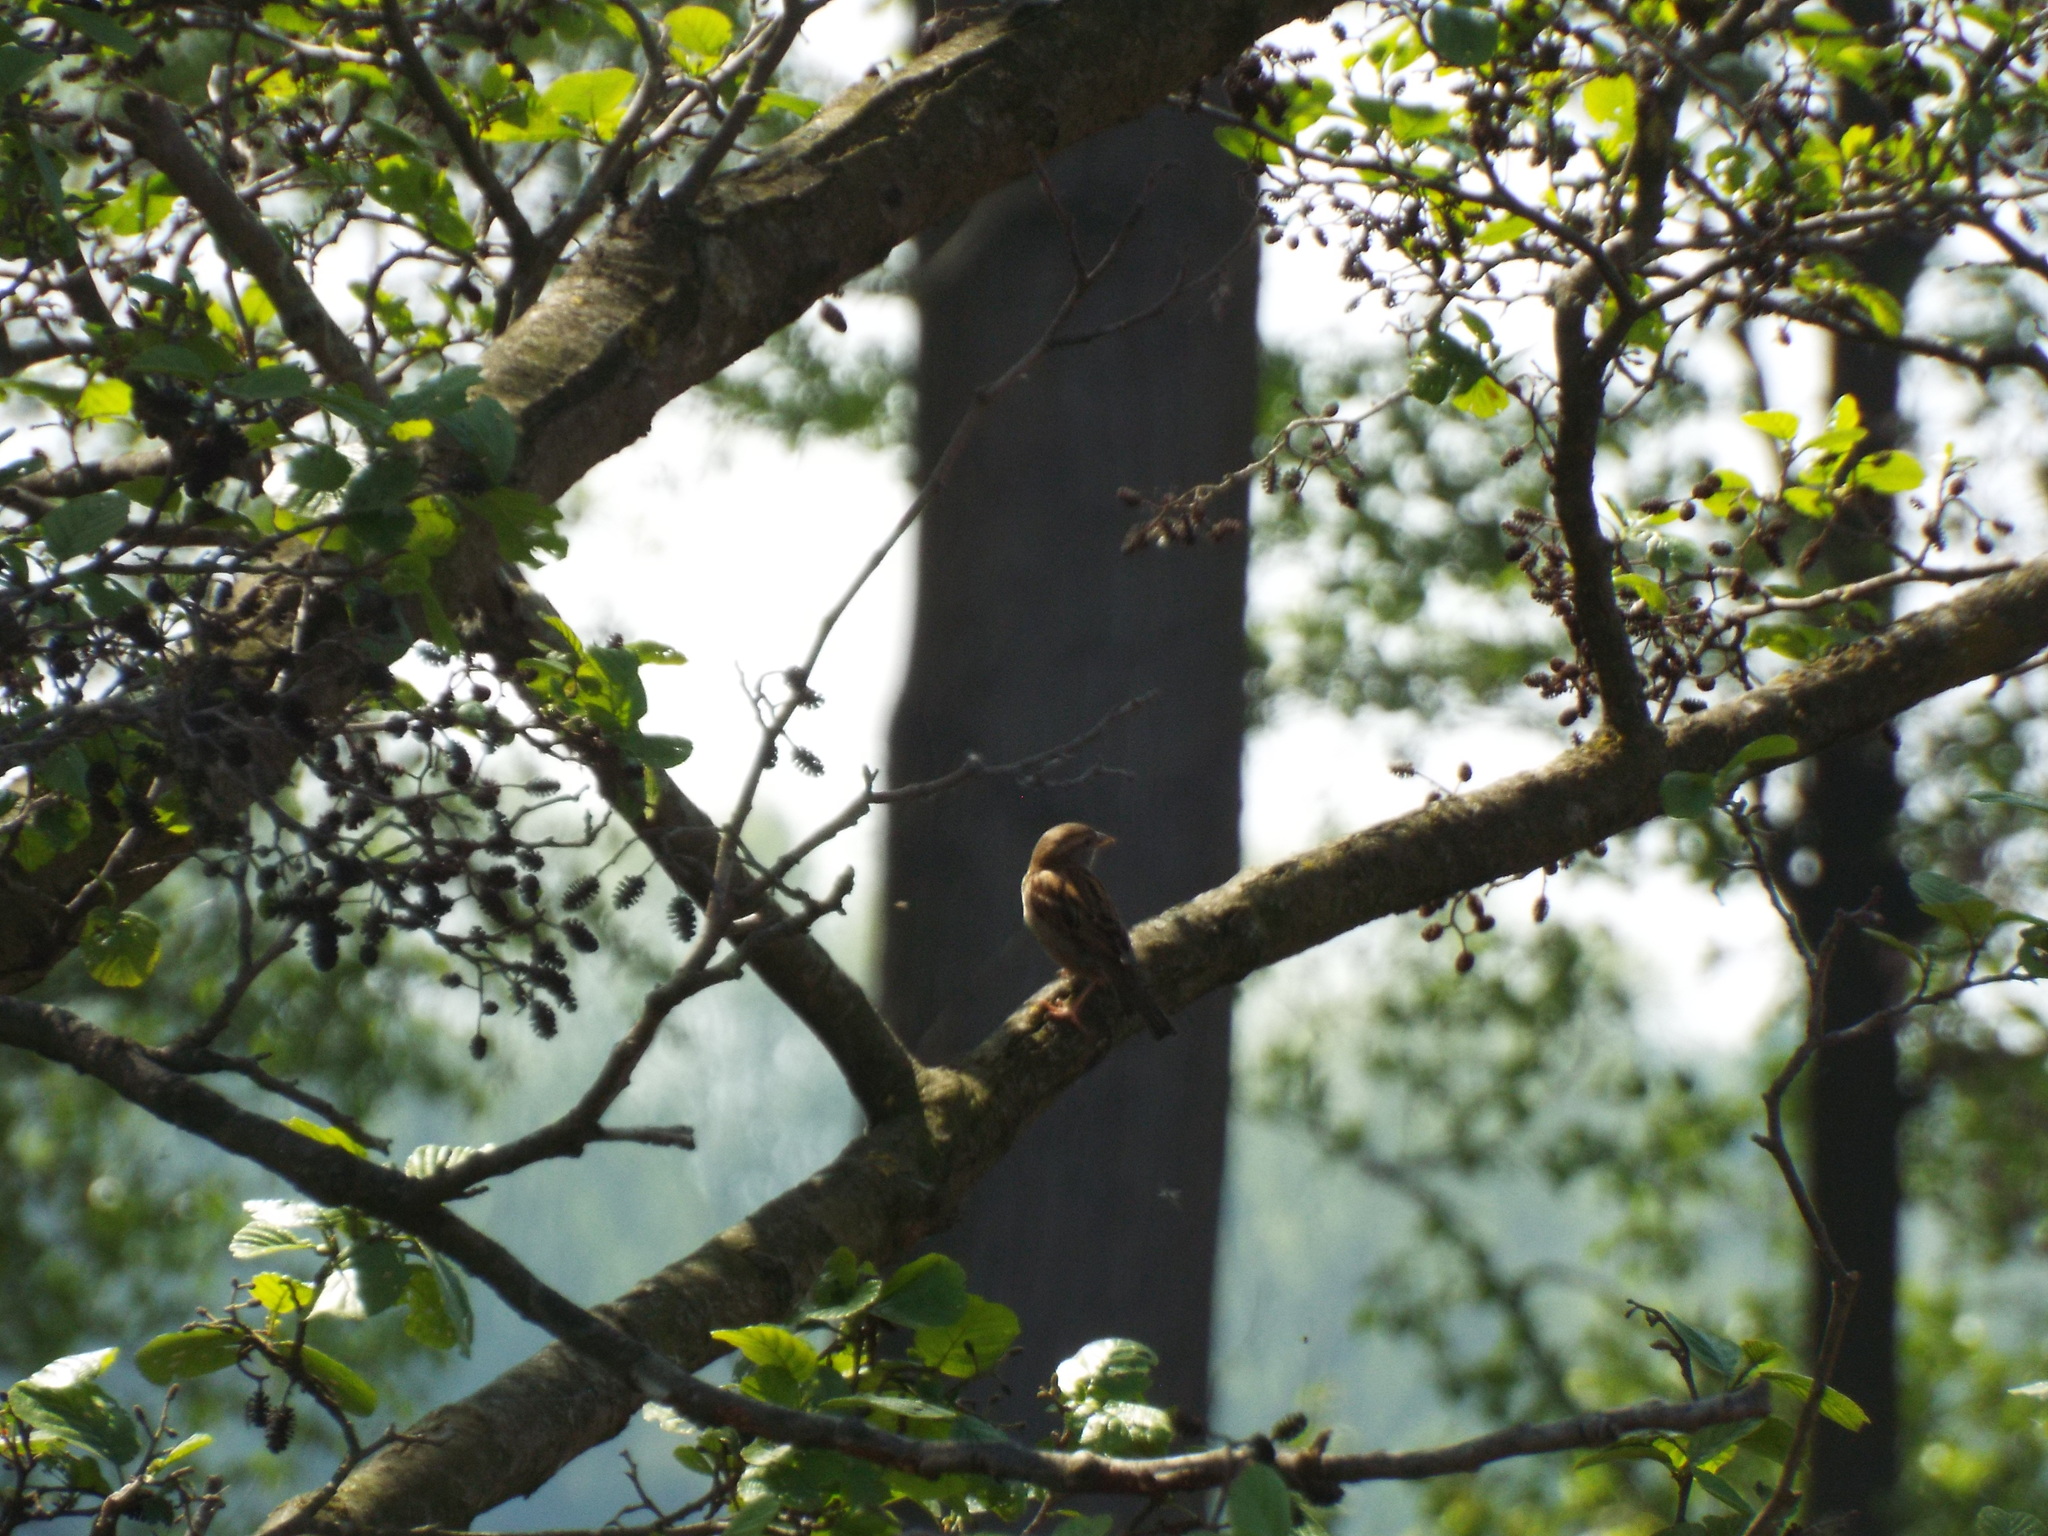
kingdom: Animalia
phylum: Chordata
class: Aves
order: Passeriformes
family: Passeridae
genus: Passer
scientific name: Passer domesticus
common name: House sparrow
